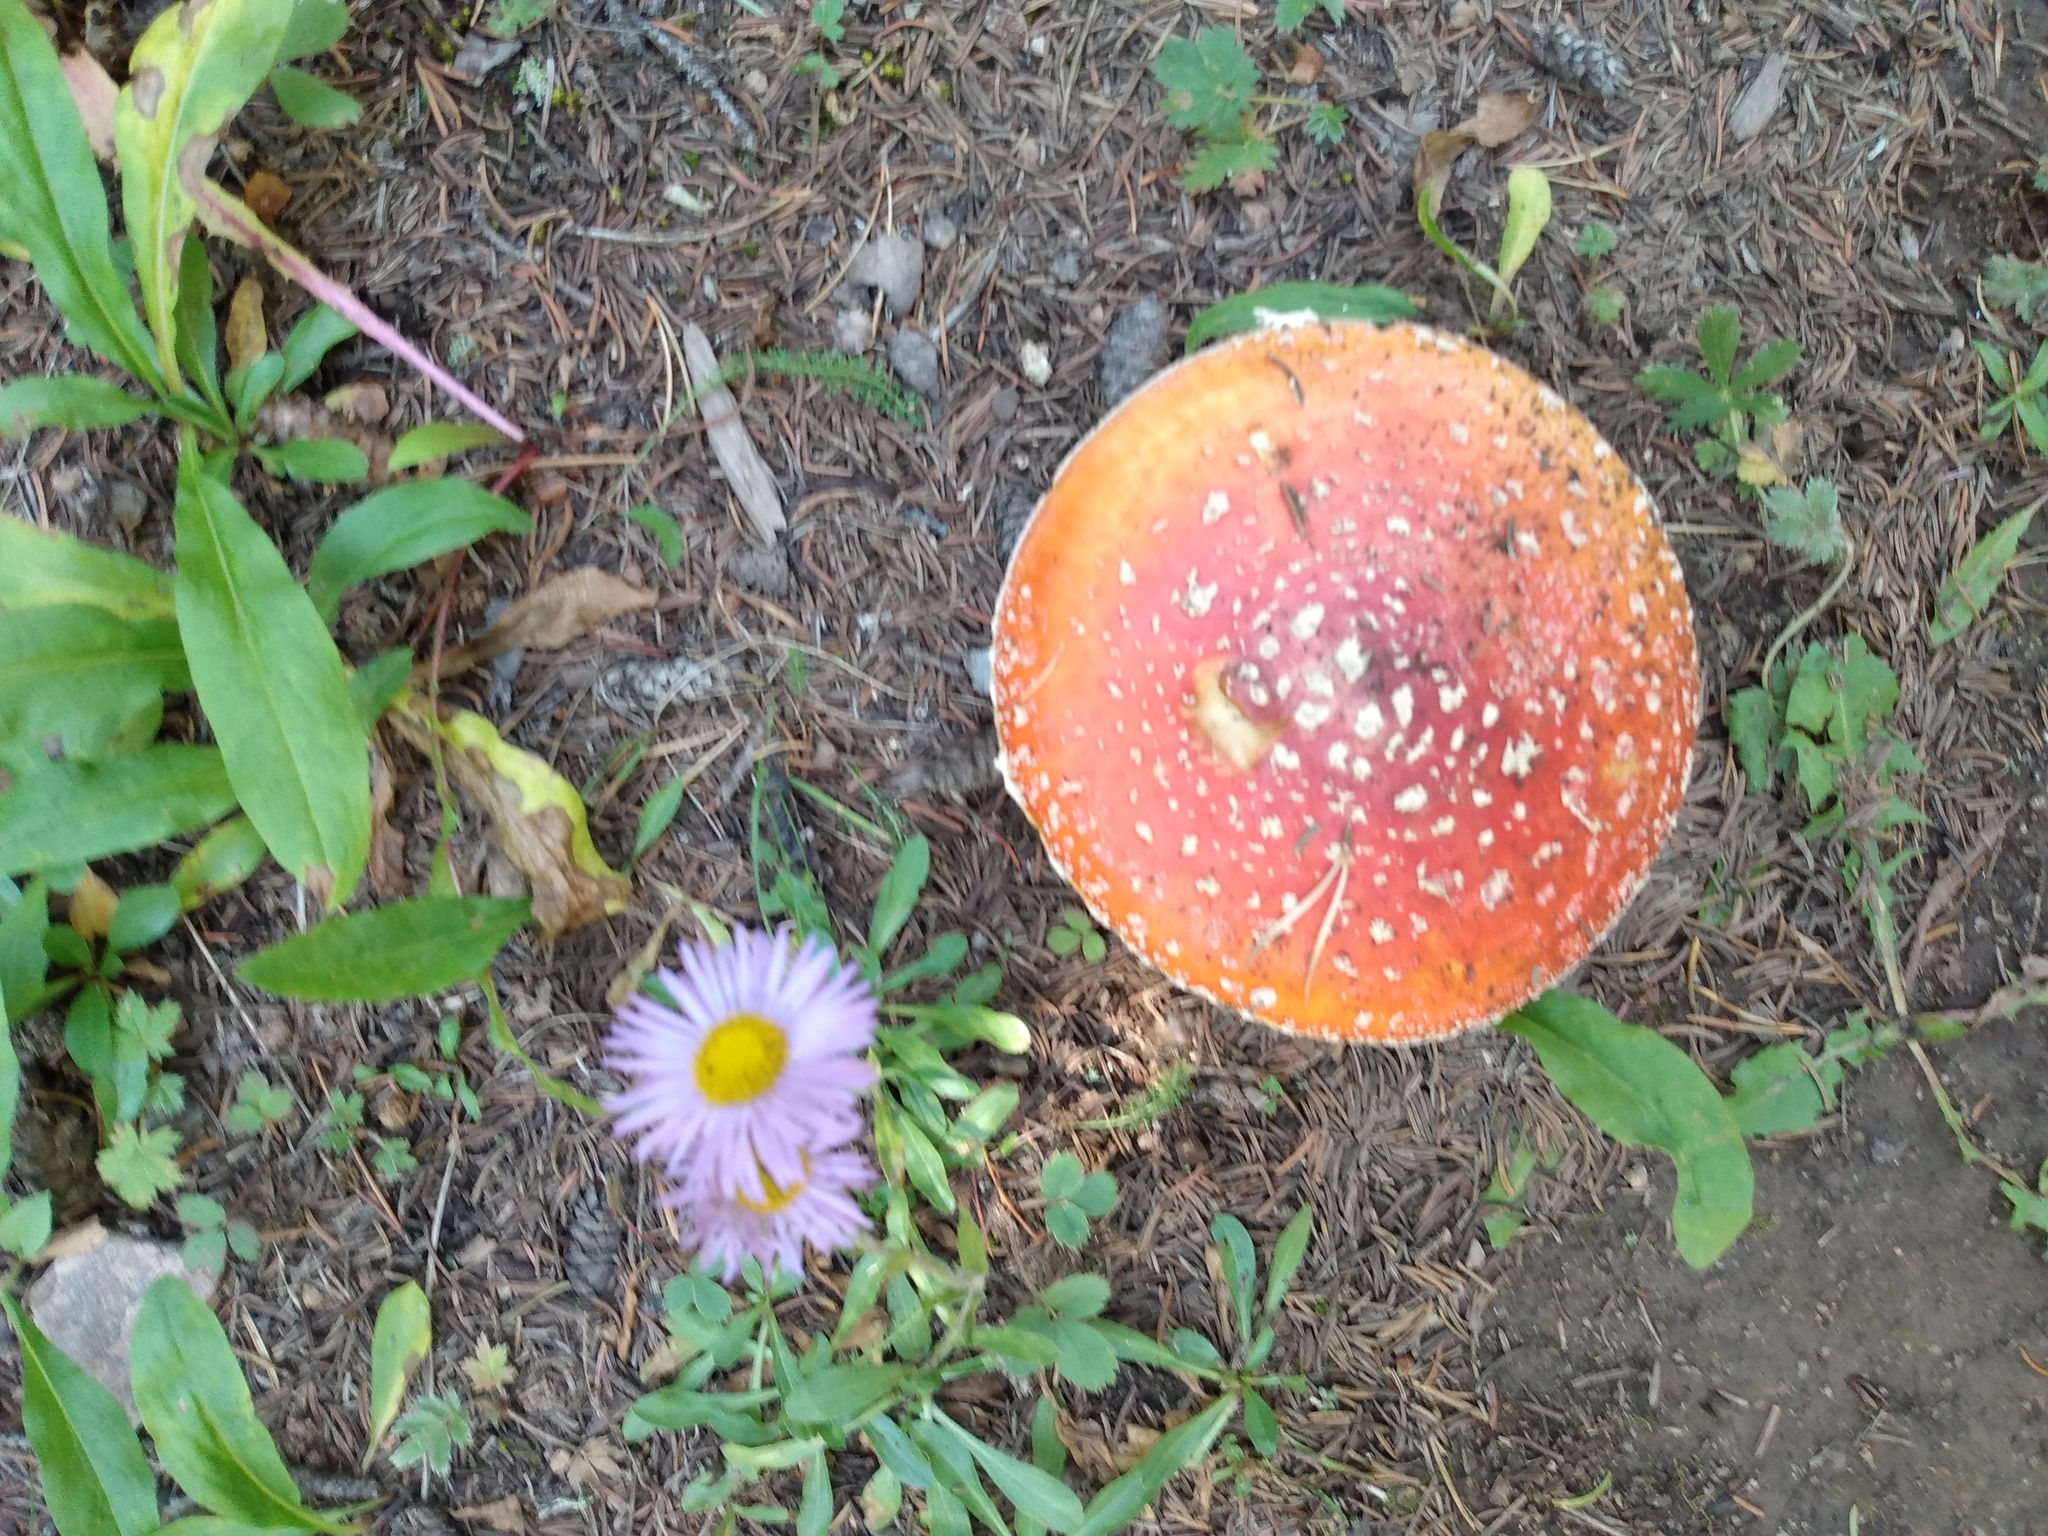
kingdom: Fungi
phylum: Basidiomycota
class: Agaricomycetes
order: Agaricales
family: Amanitaceae
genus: Amanita
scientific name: Amanita muscaria
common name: Fly agaric
